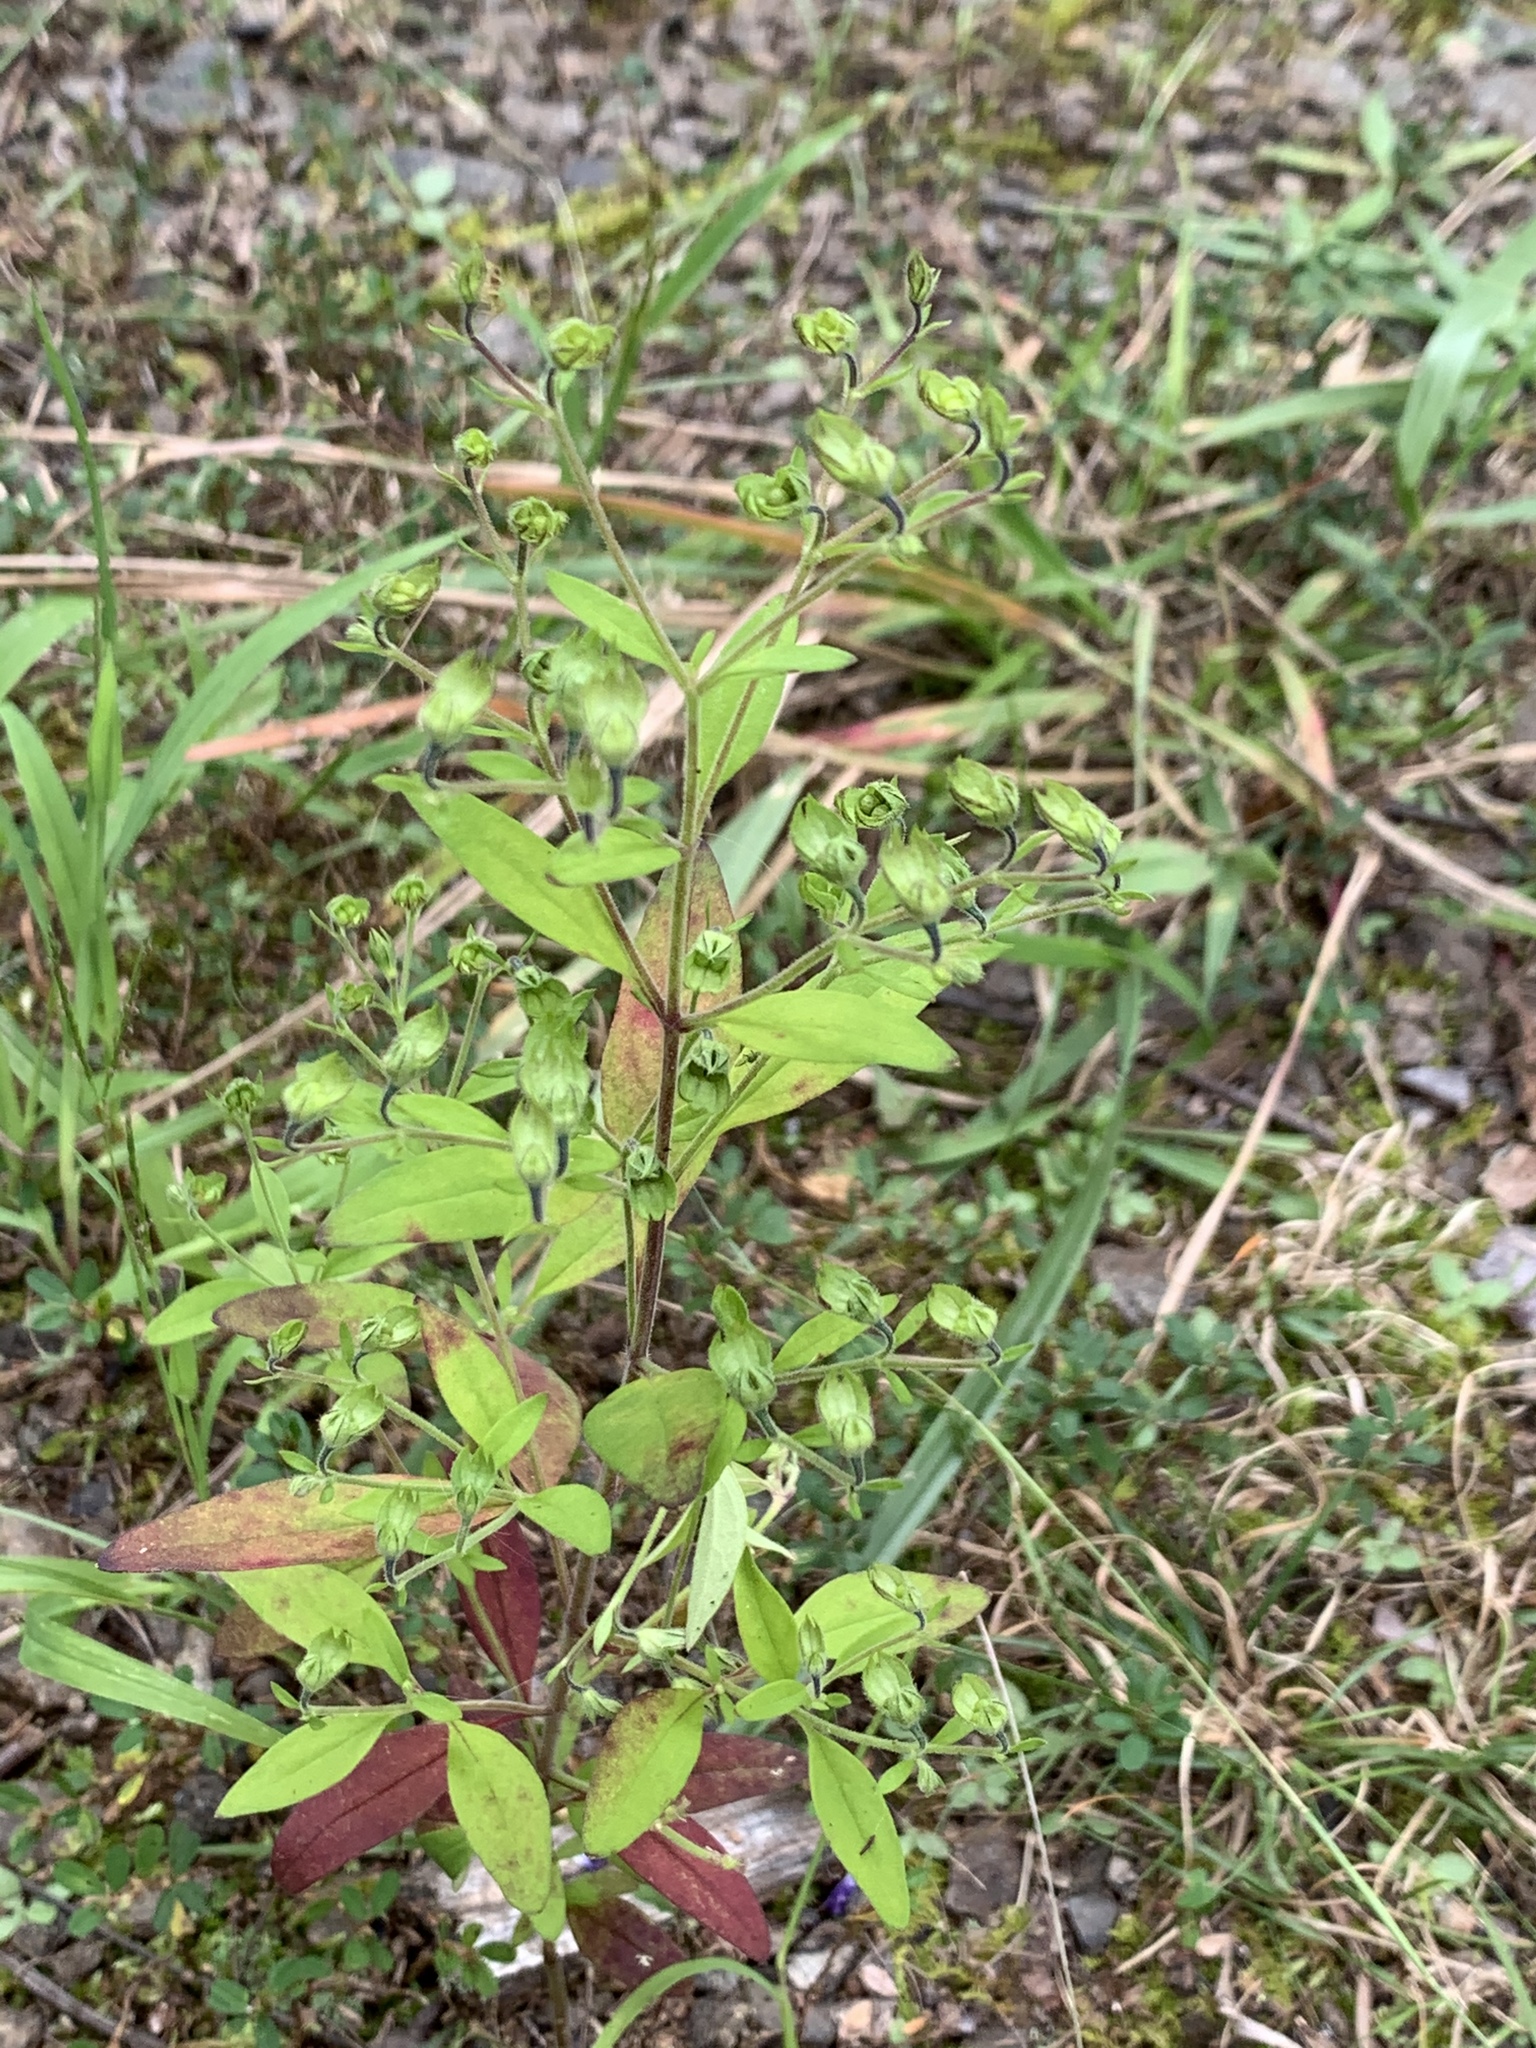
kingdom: Plantae
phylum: Tracheophyta
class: Magnoliopsida
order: Lamiales
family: Lamiaceae
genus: Trichostema
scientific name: Trichostema dichotomum
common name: Bastard pennyroyal
